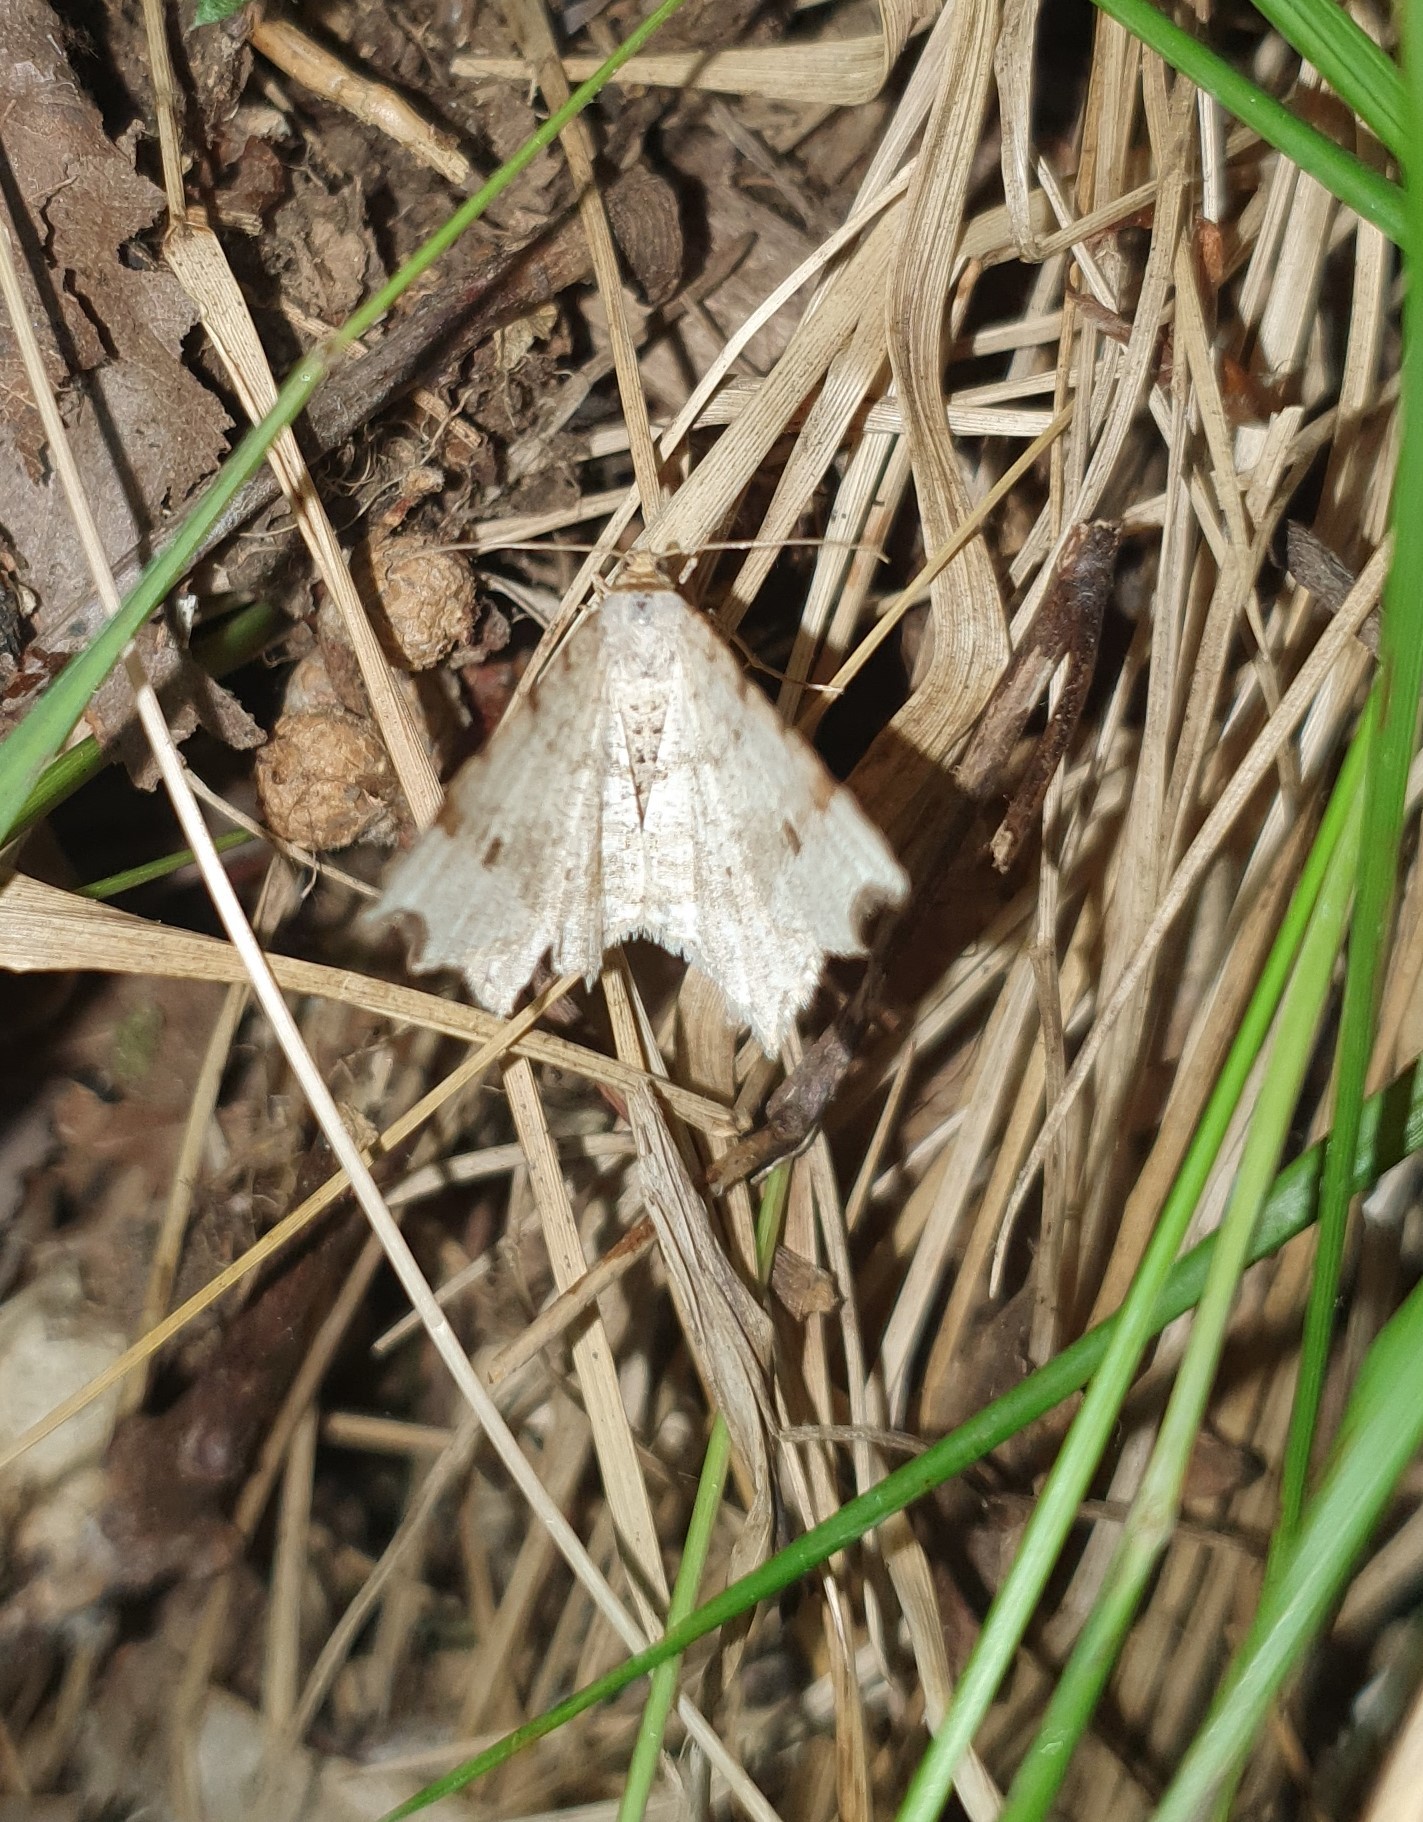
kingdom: Animalia
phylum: Arthropoda
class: Insecta
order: Lepidoptera
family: Geometridae
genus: Macaria
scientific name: Macaria alternata
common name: Sharp-angled peacock
